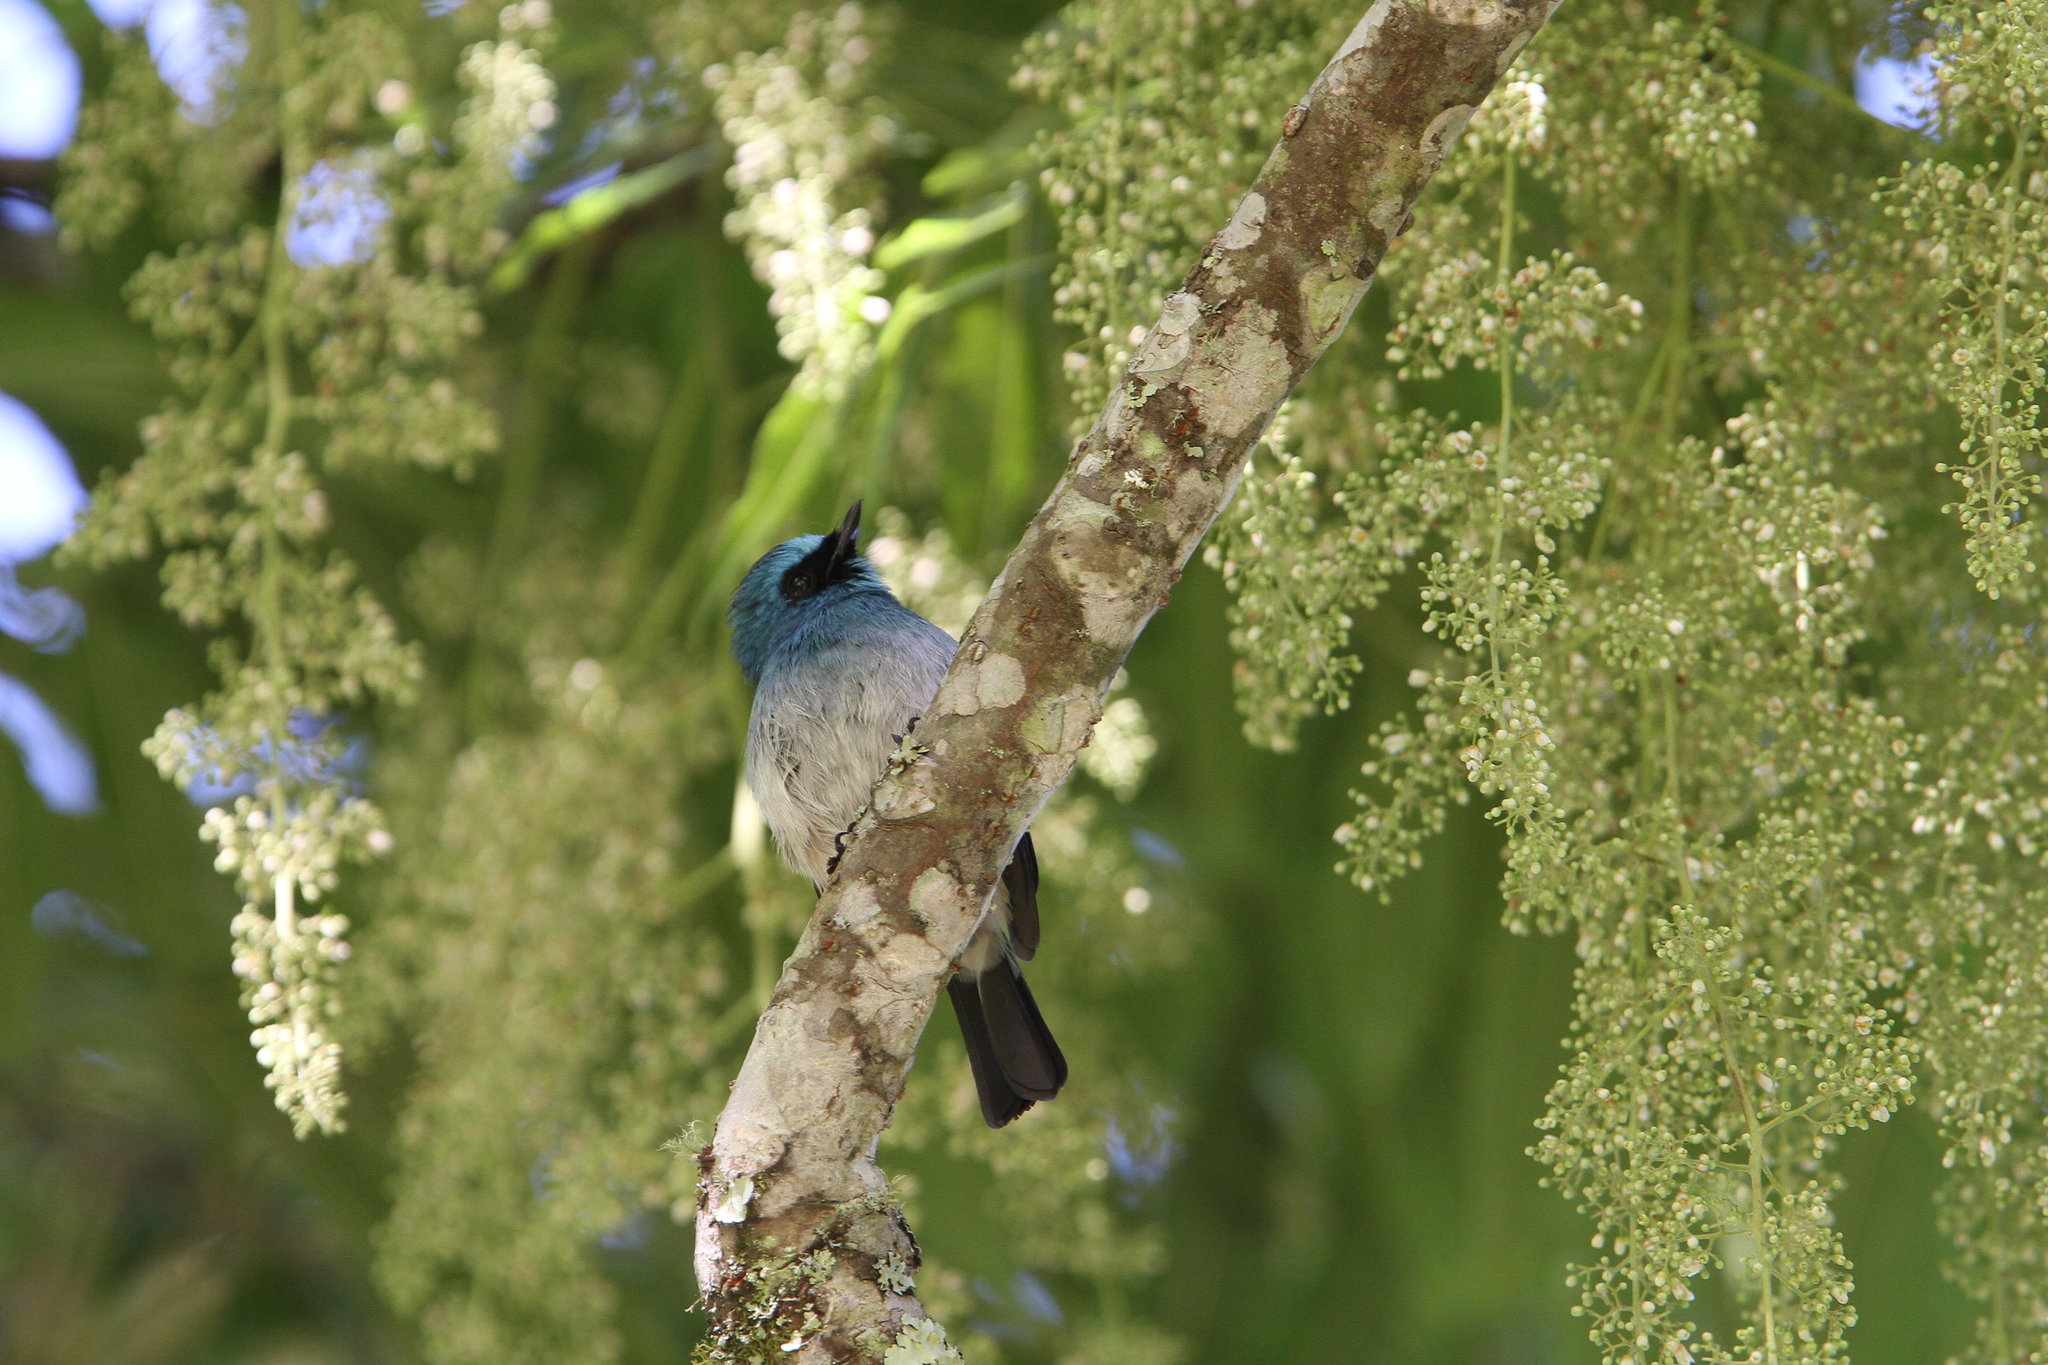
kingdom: Animalia
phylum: Chordata
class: Aves
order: Passeriformes
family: Muscicapidae
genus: Eumyias
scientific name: Eumyias indigo
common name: Indigo flycatcher
